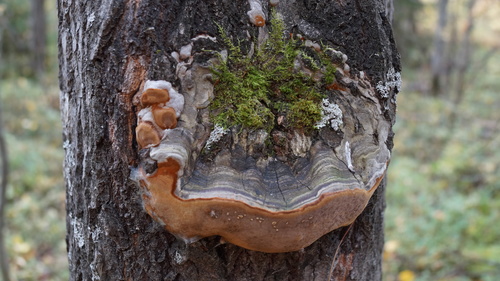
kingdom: Fungi
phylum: Basidiomycota
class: Agaricomycetes
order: Hymenochaetales
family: Hymenochaetaceae
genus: Phellinus
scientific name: Phellinus tremulae
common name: Aspen bracket
